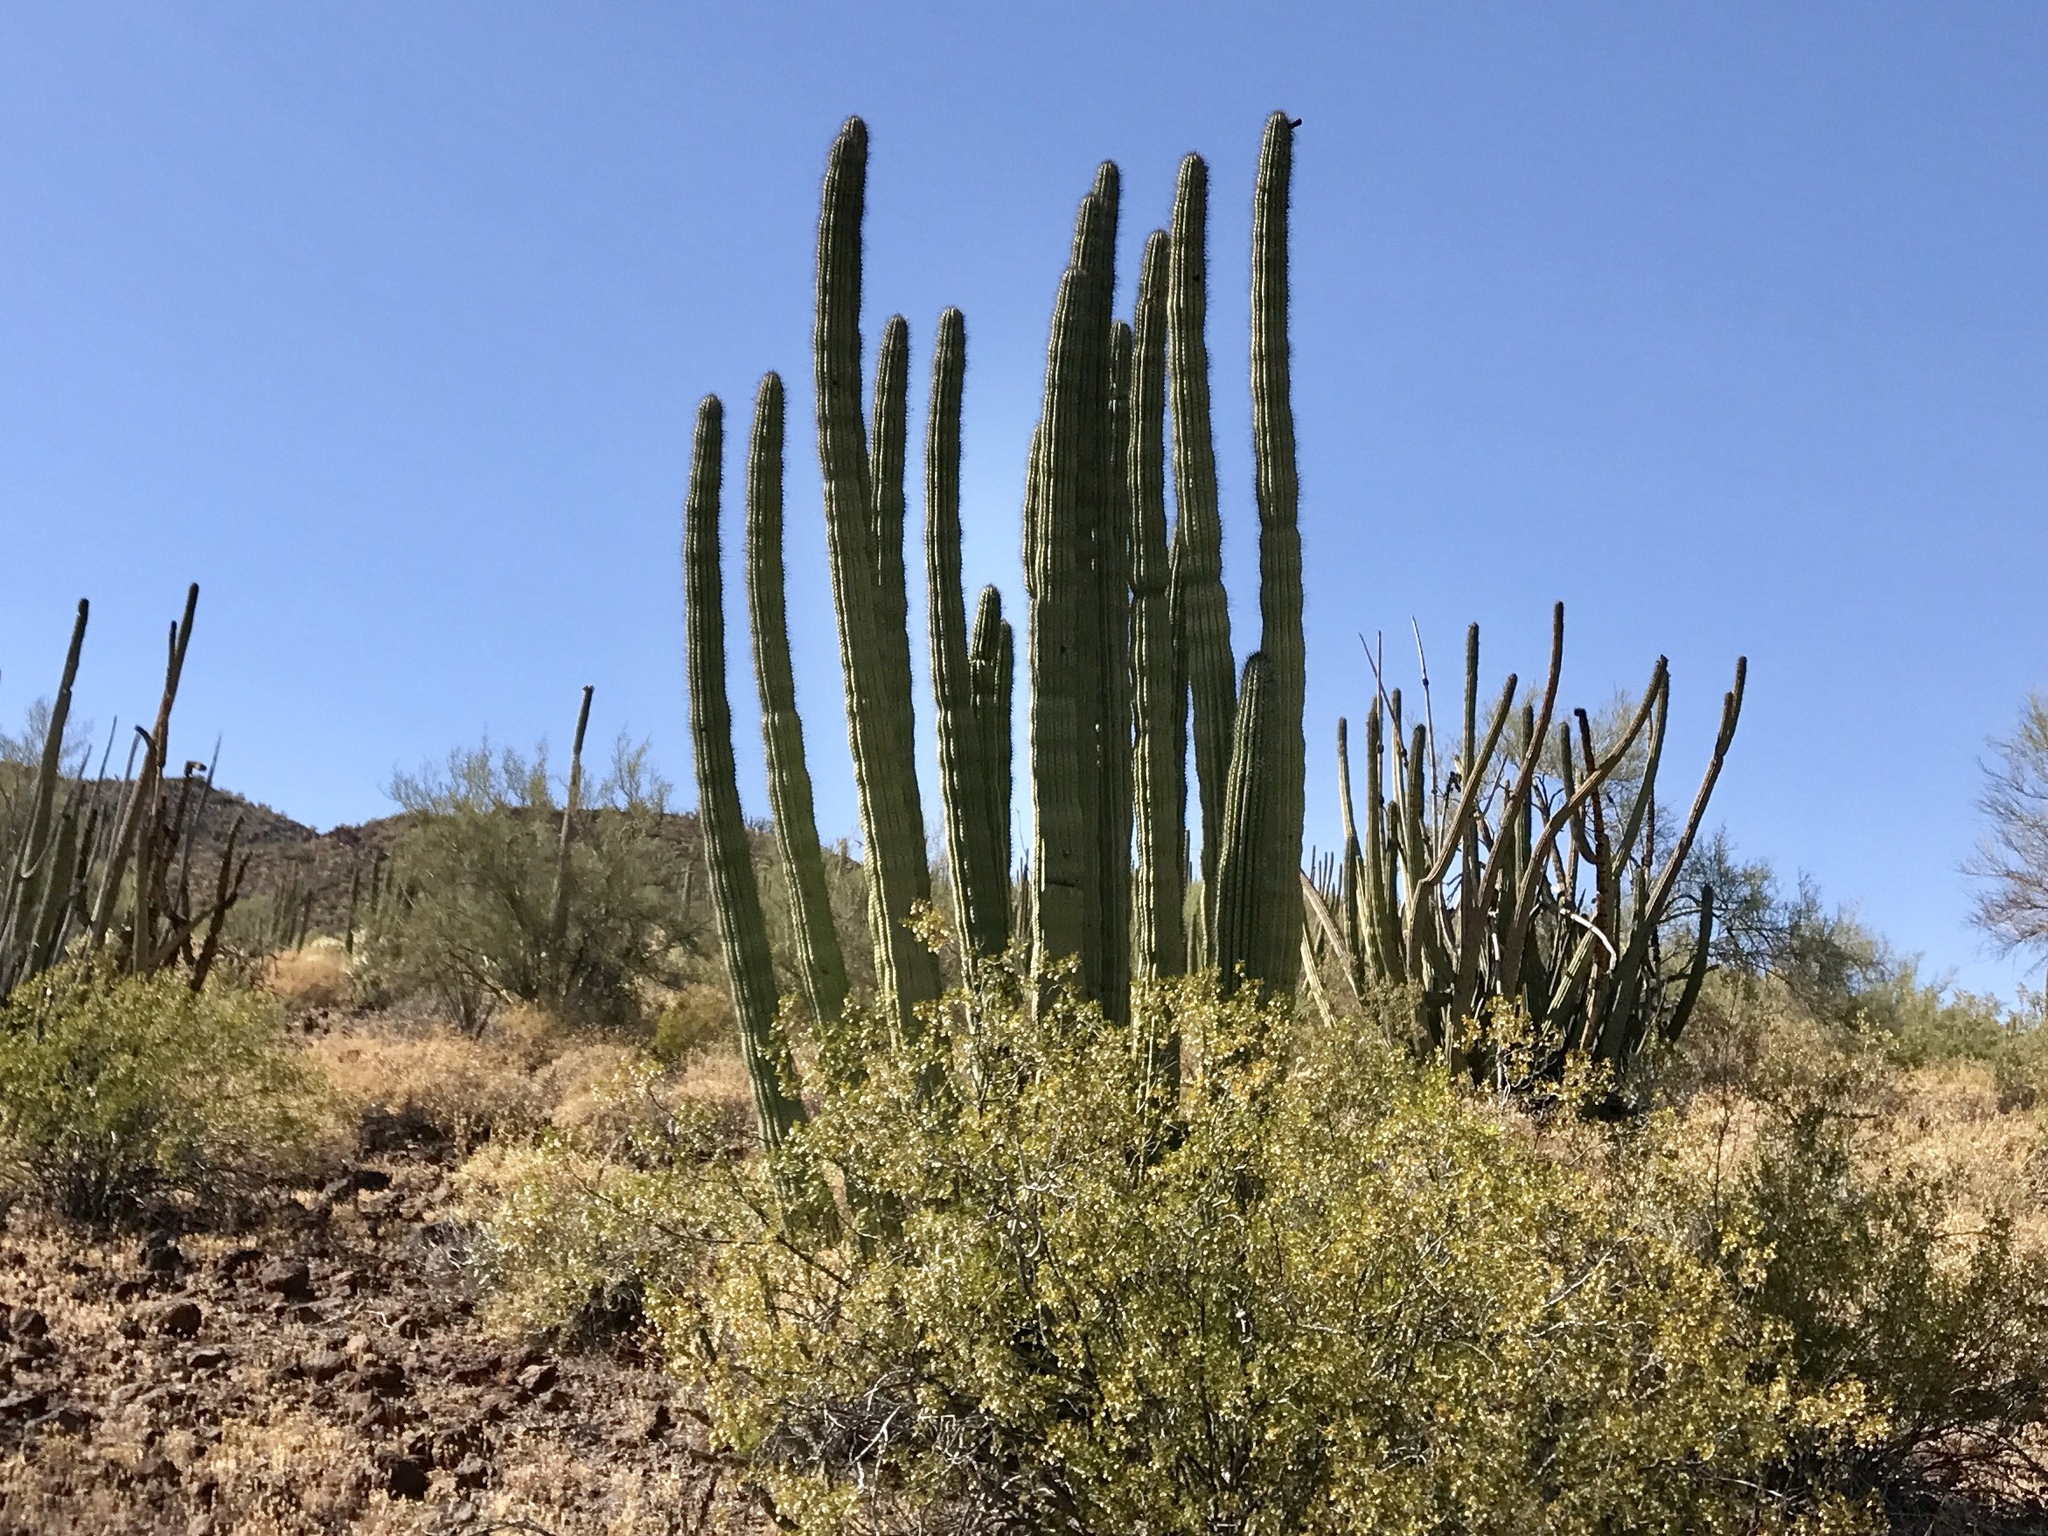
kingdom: Plantae
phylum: Tracheophyta
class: Magnoliopsida
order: Caryophyllales
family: Cactaceae
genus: Stenocereus
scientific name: Stenocereus thurberi
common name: Organ pipe cactus
